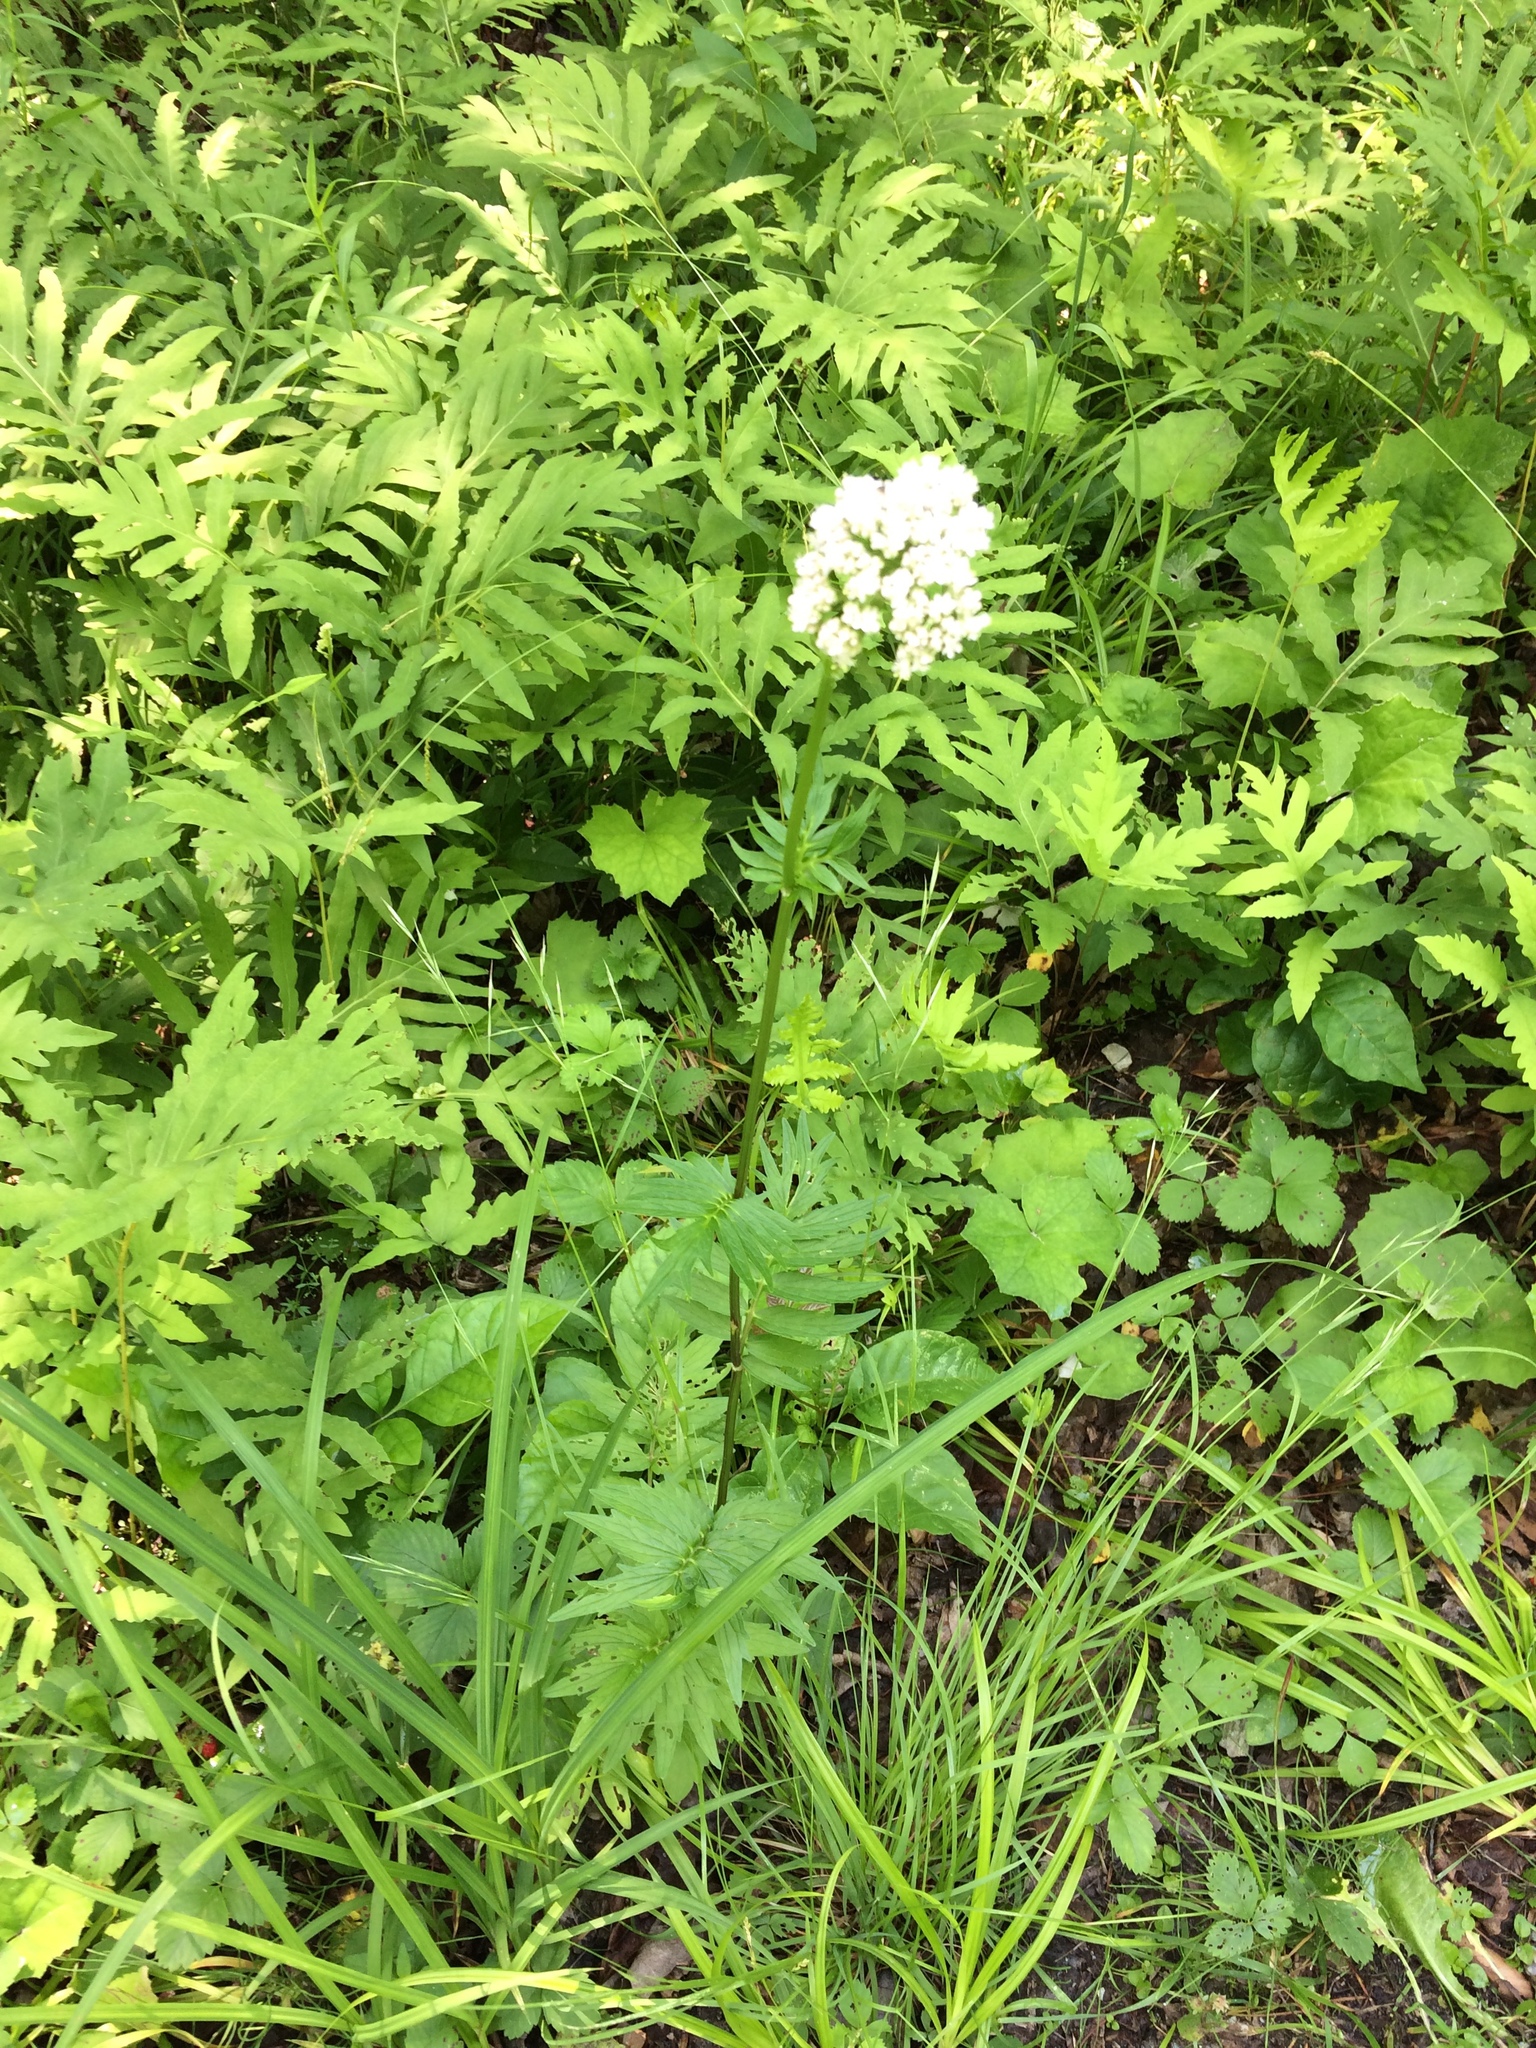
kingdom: Plantae
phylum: Tracheophyta
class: Magnoliopsida
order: Dipsacales
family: Caprifoliaceae
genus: Valeriana
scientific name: Valeriana officinalis
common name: Common valerian
